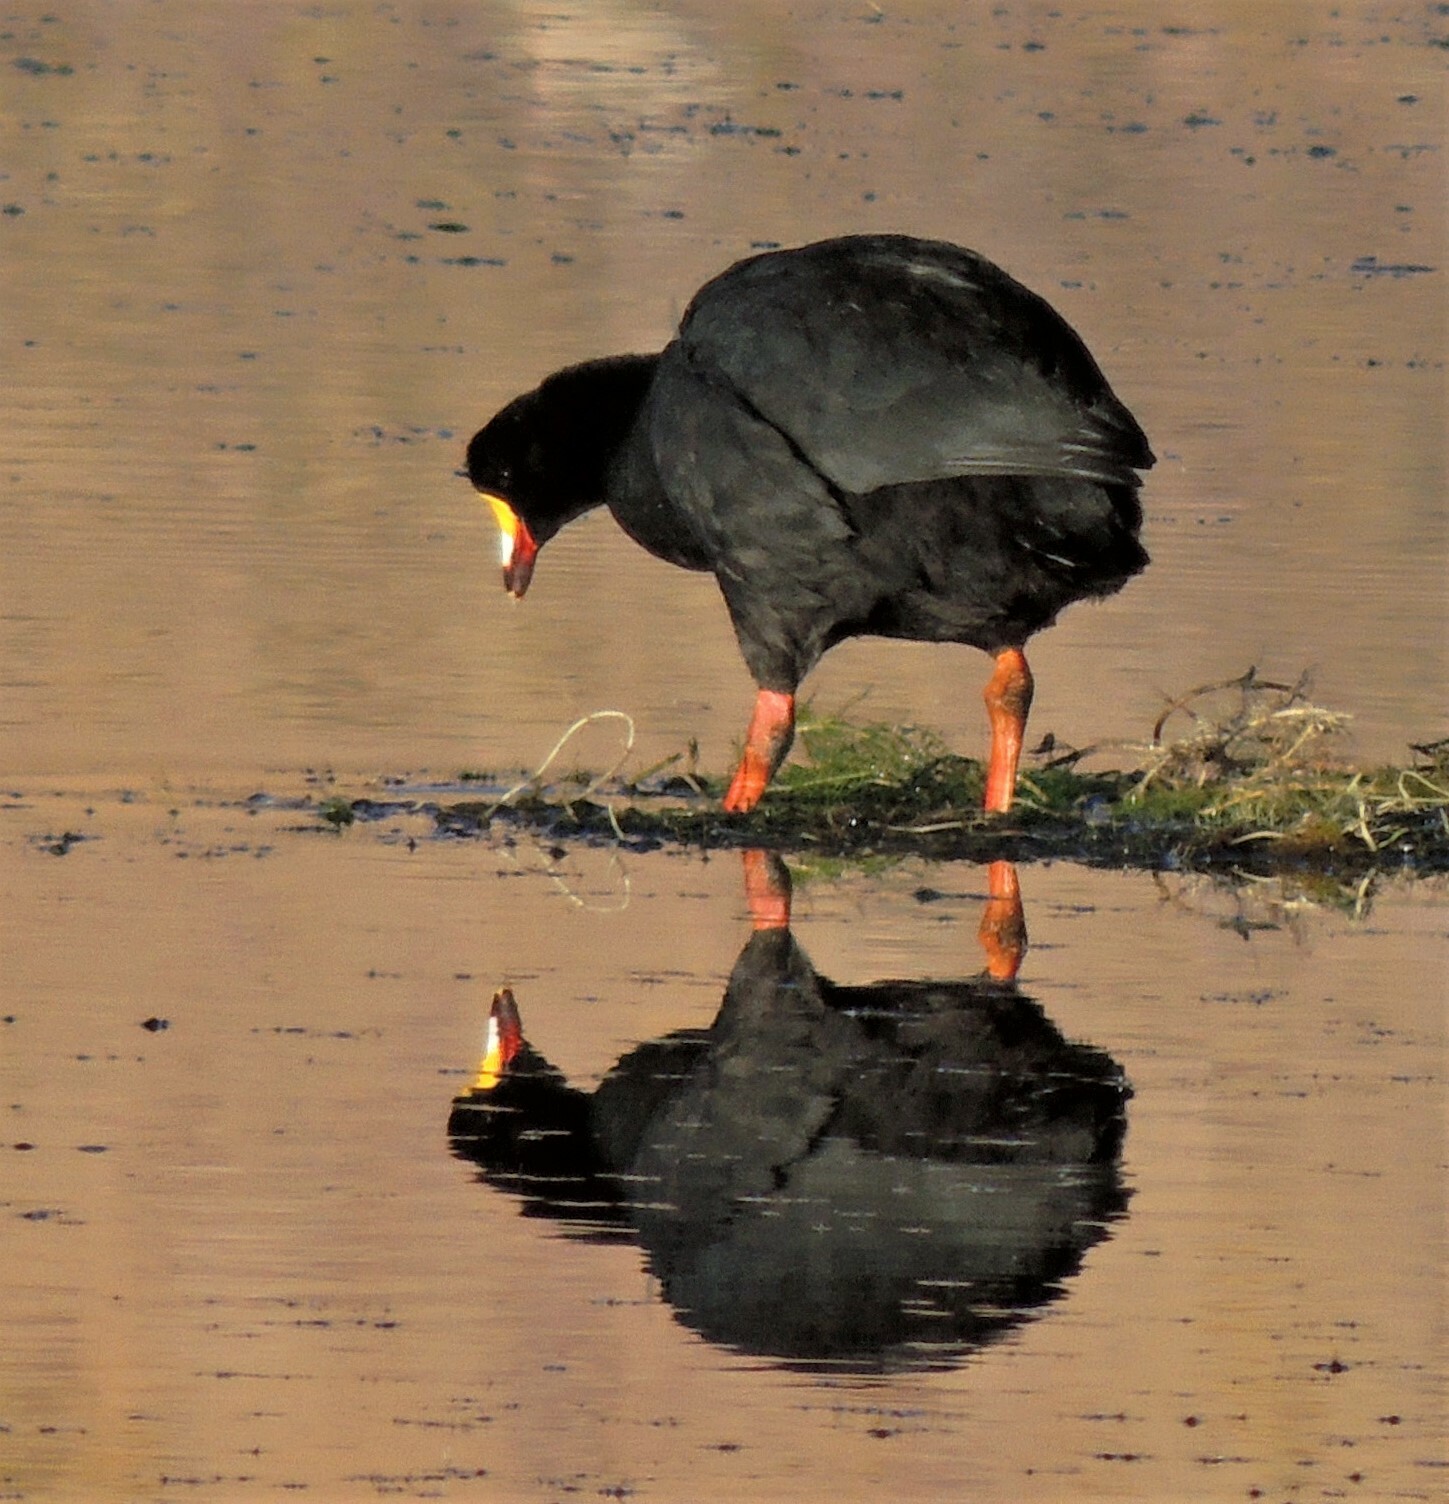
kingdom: Animalia
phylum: Chordata
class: Aves
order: Gruiformes
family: Rallidae
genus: Fulica
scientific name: Fulica gigantea
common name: Giant coot
